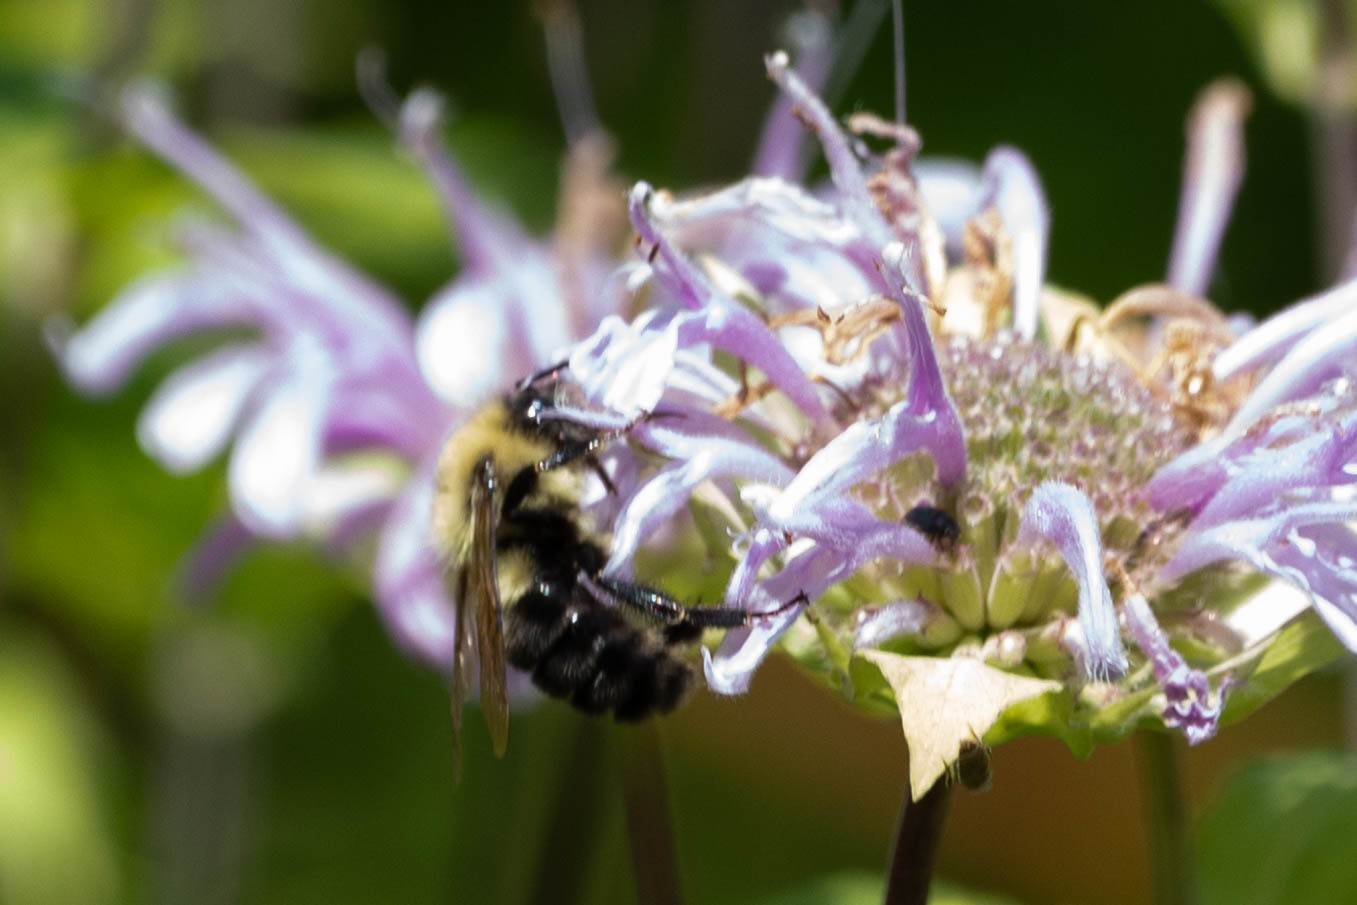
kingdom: Animalia
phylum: Arthropoda
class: Insecta
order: Hymenoptera
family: Apidae
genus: Bombus
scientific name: Bombus bimaculatus
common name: Two-spotted bumble bee
